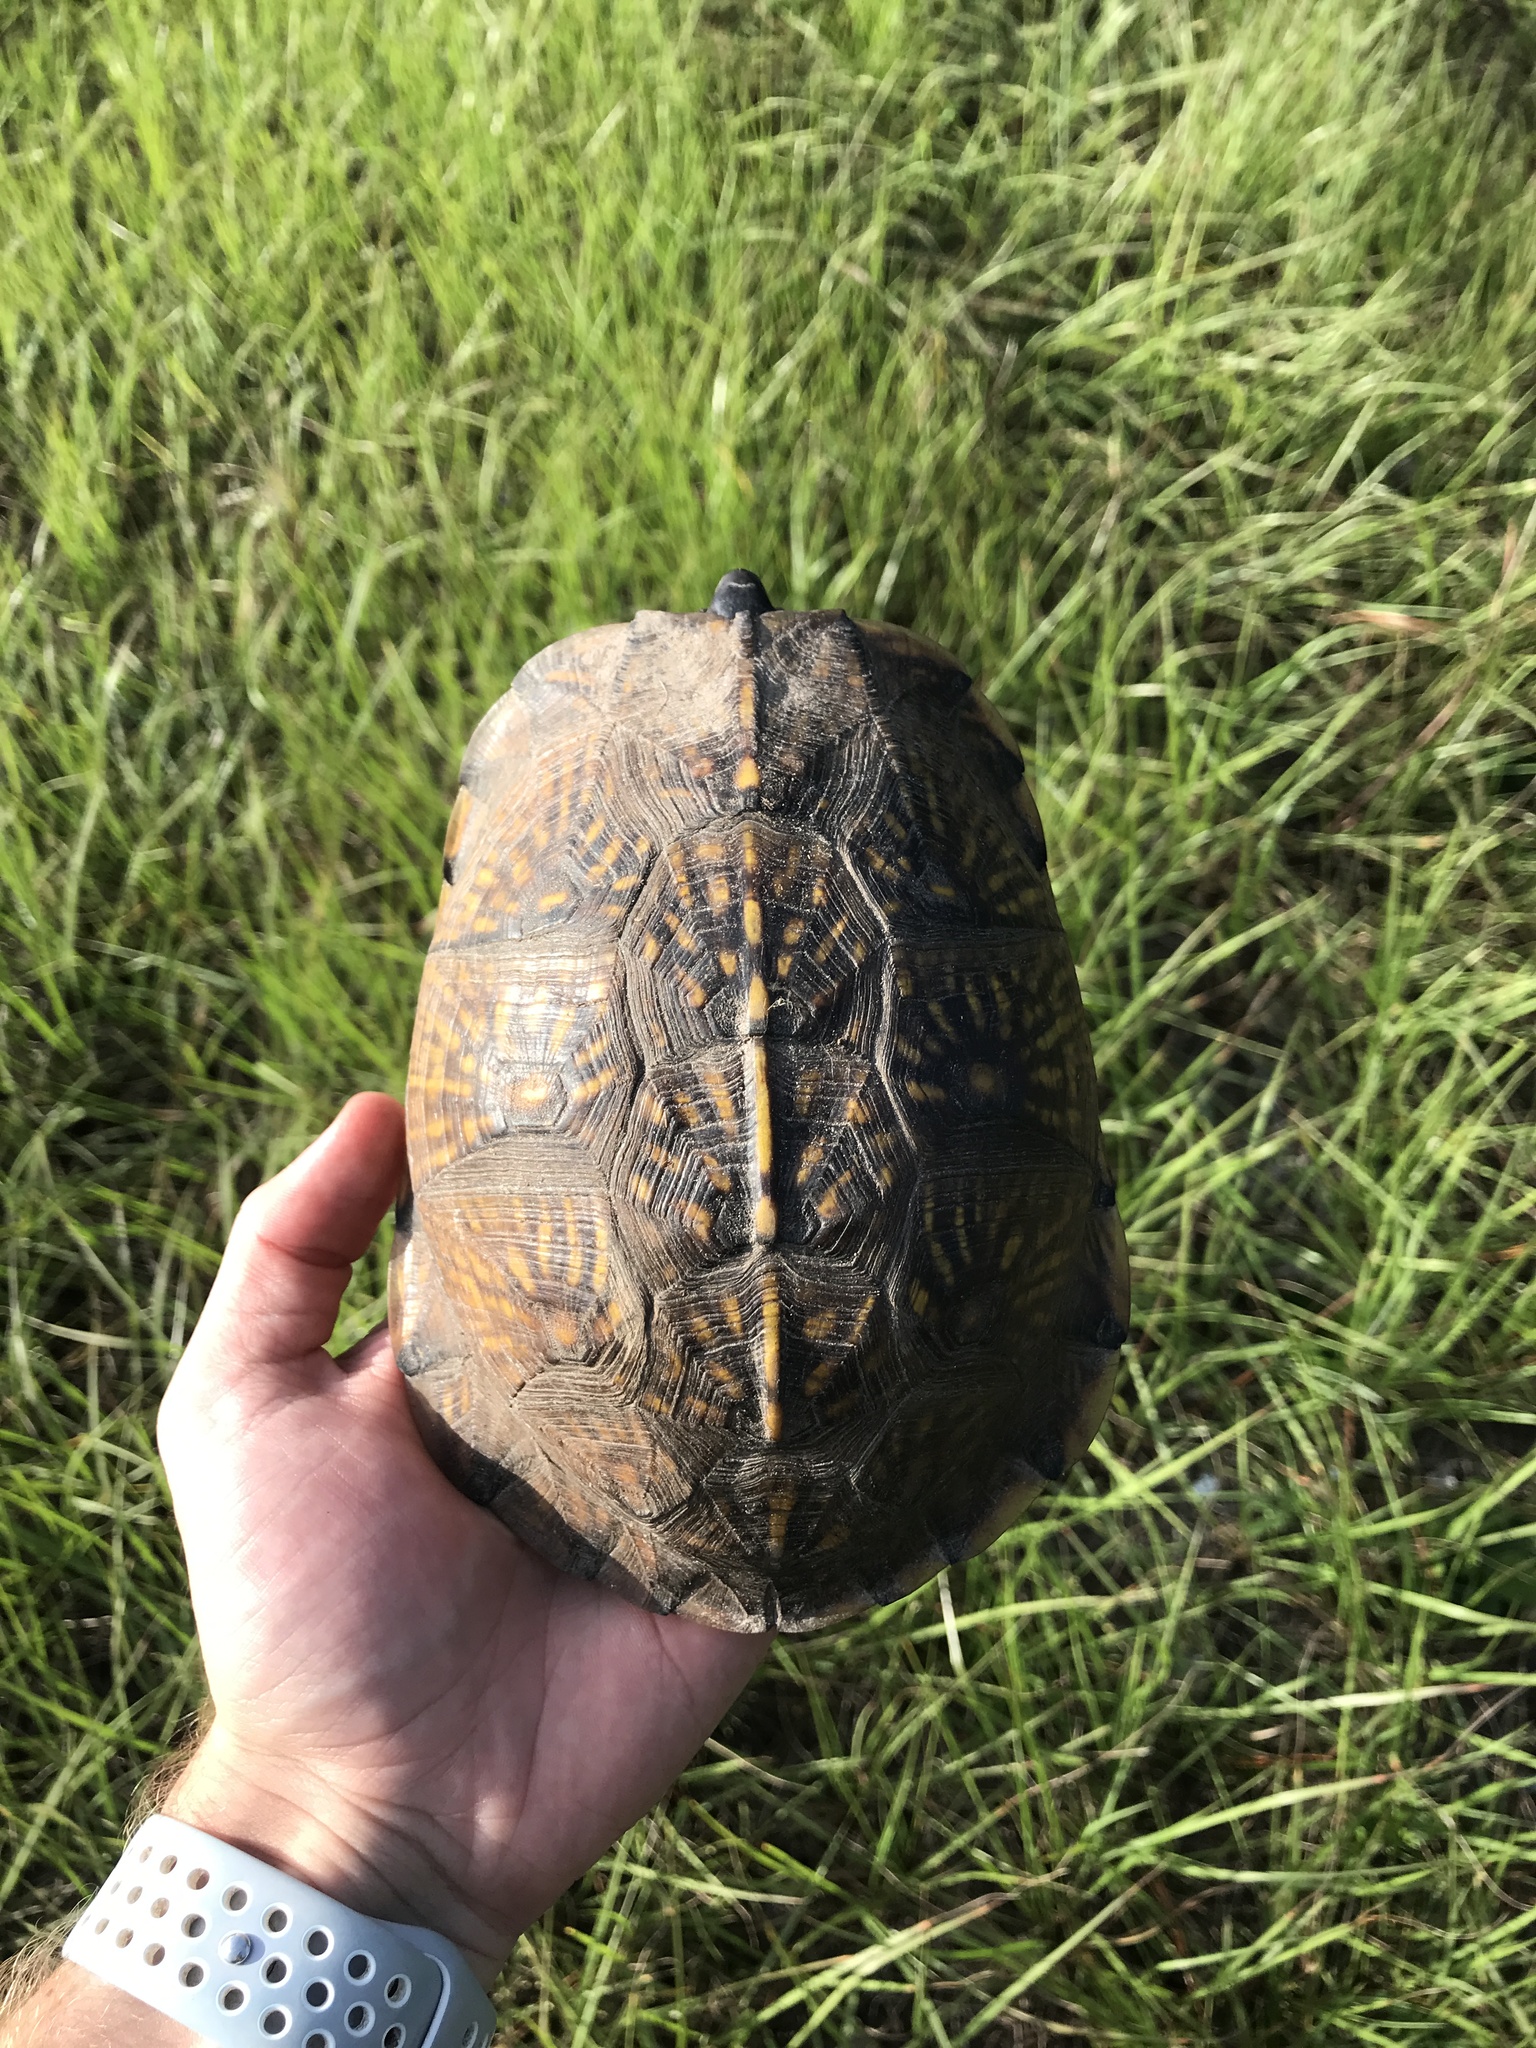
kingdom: Animalia
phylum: Chordata
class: Testudines
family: Emydidae
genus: Terrapene
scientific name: Terrapene carolina
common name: Common box turtle
